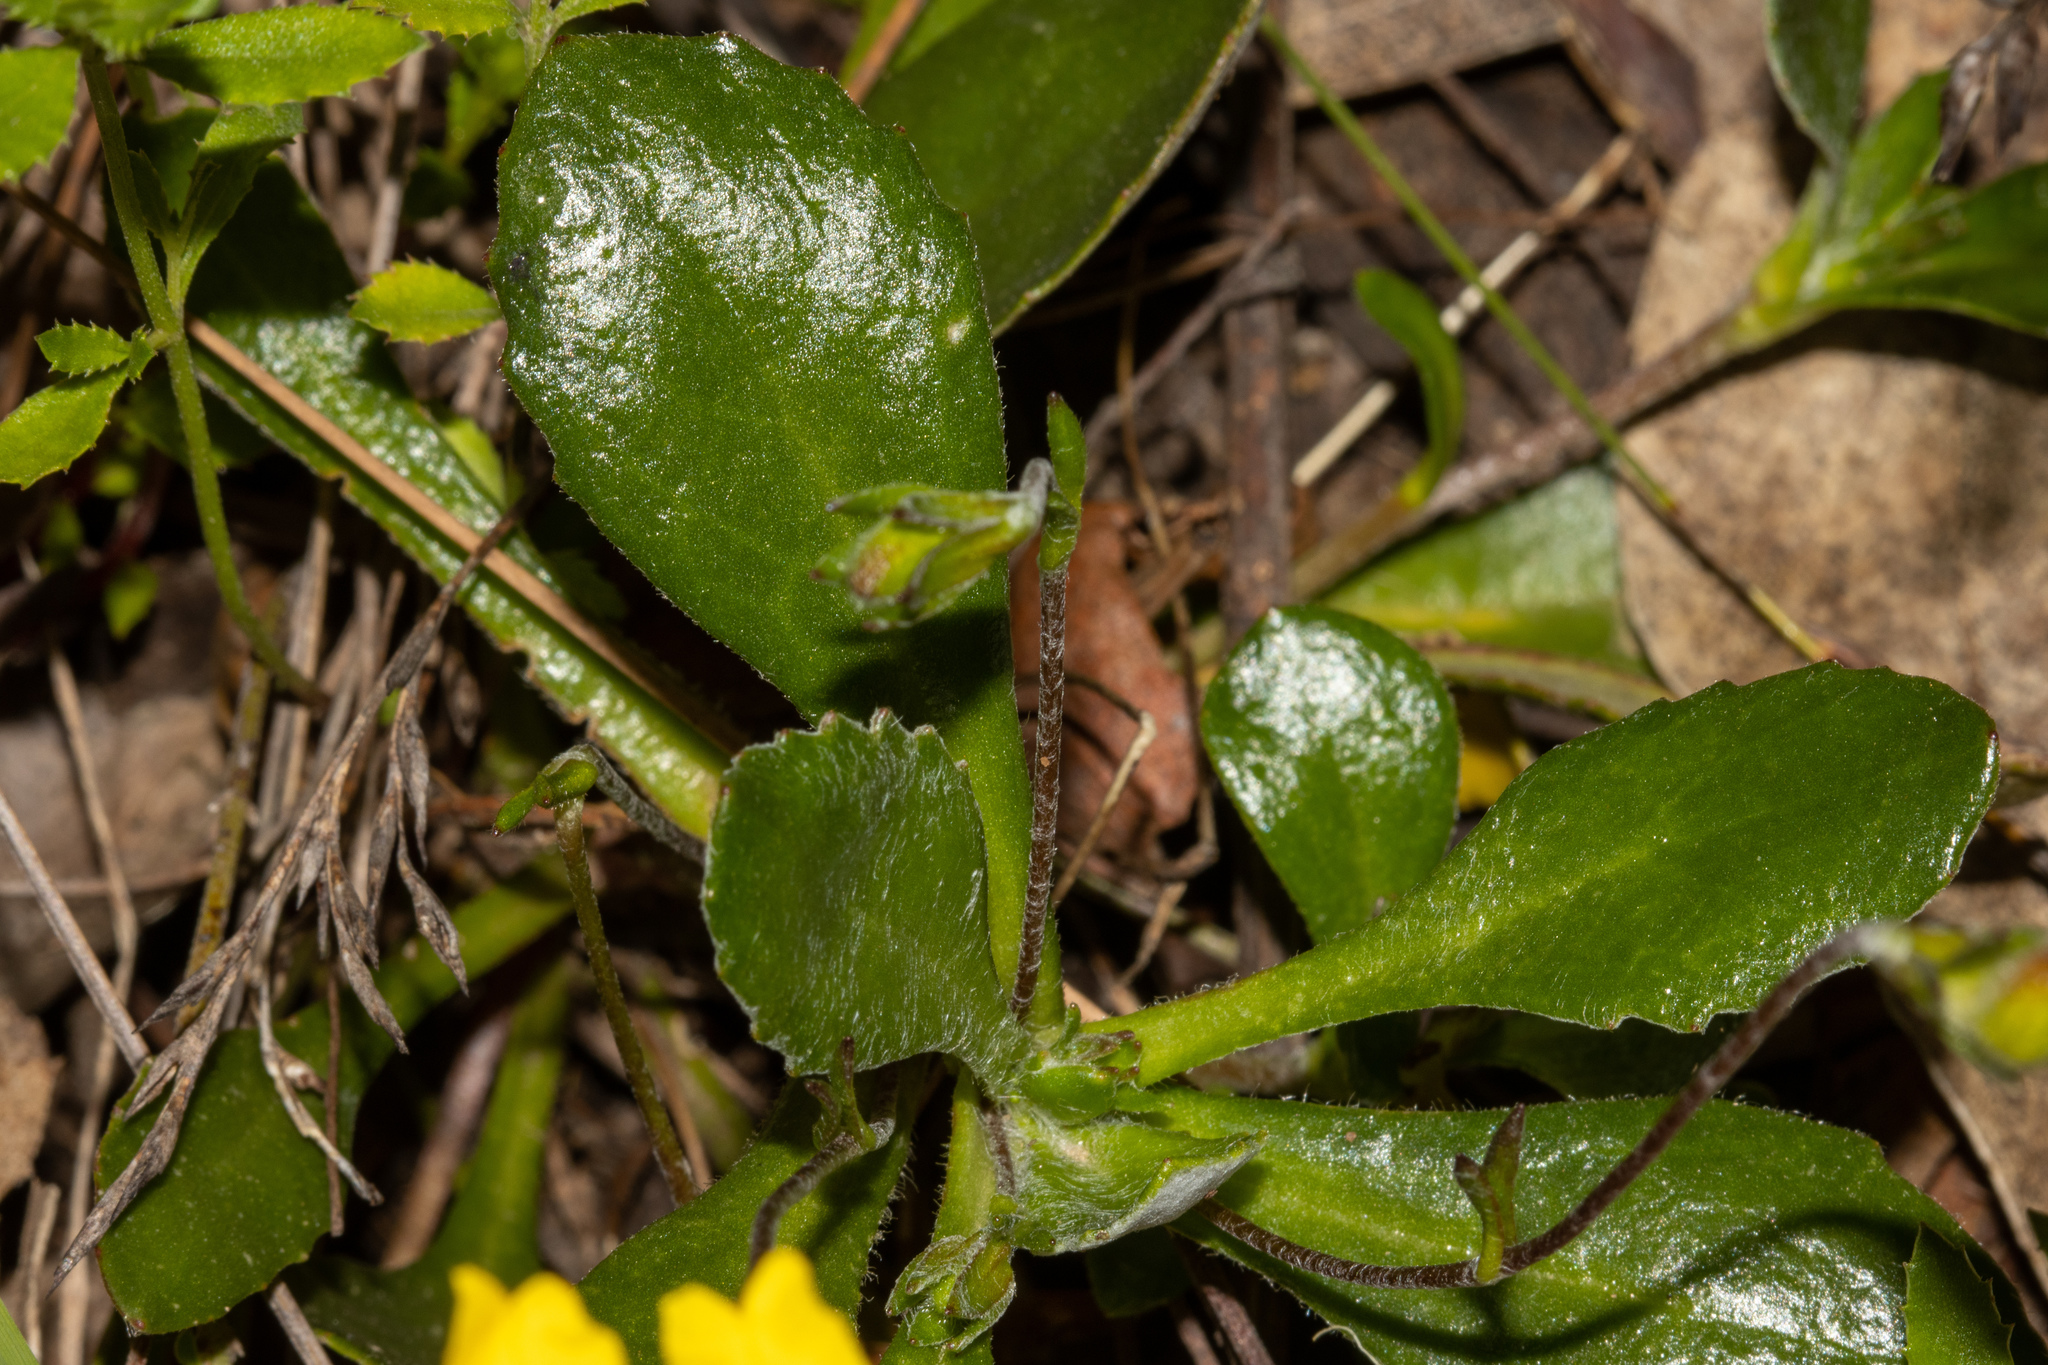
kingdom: Plantae
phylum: Tracheophyta
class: Magnoliopsida
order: Asterales
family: Goodeniaceae
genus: Goodenia
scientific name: Goodenia blackiana
